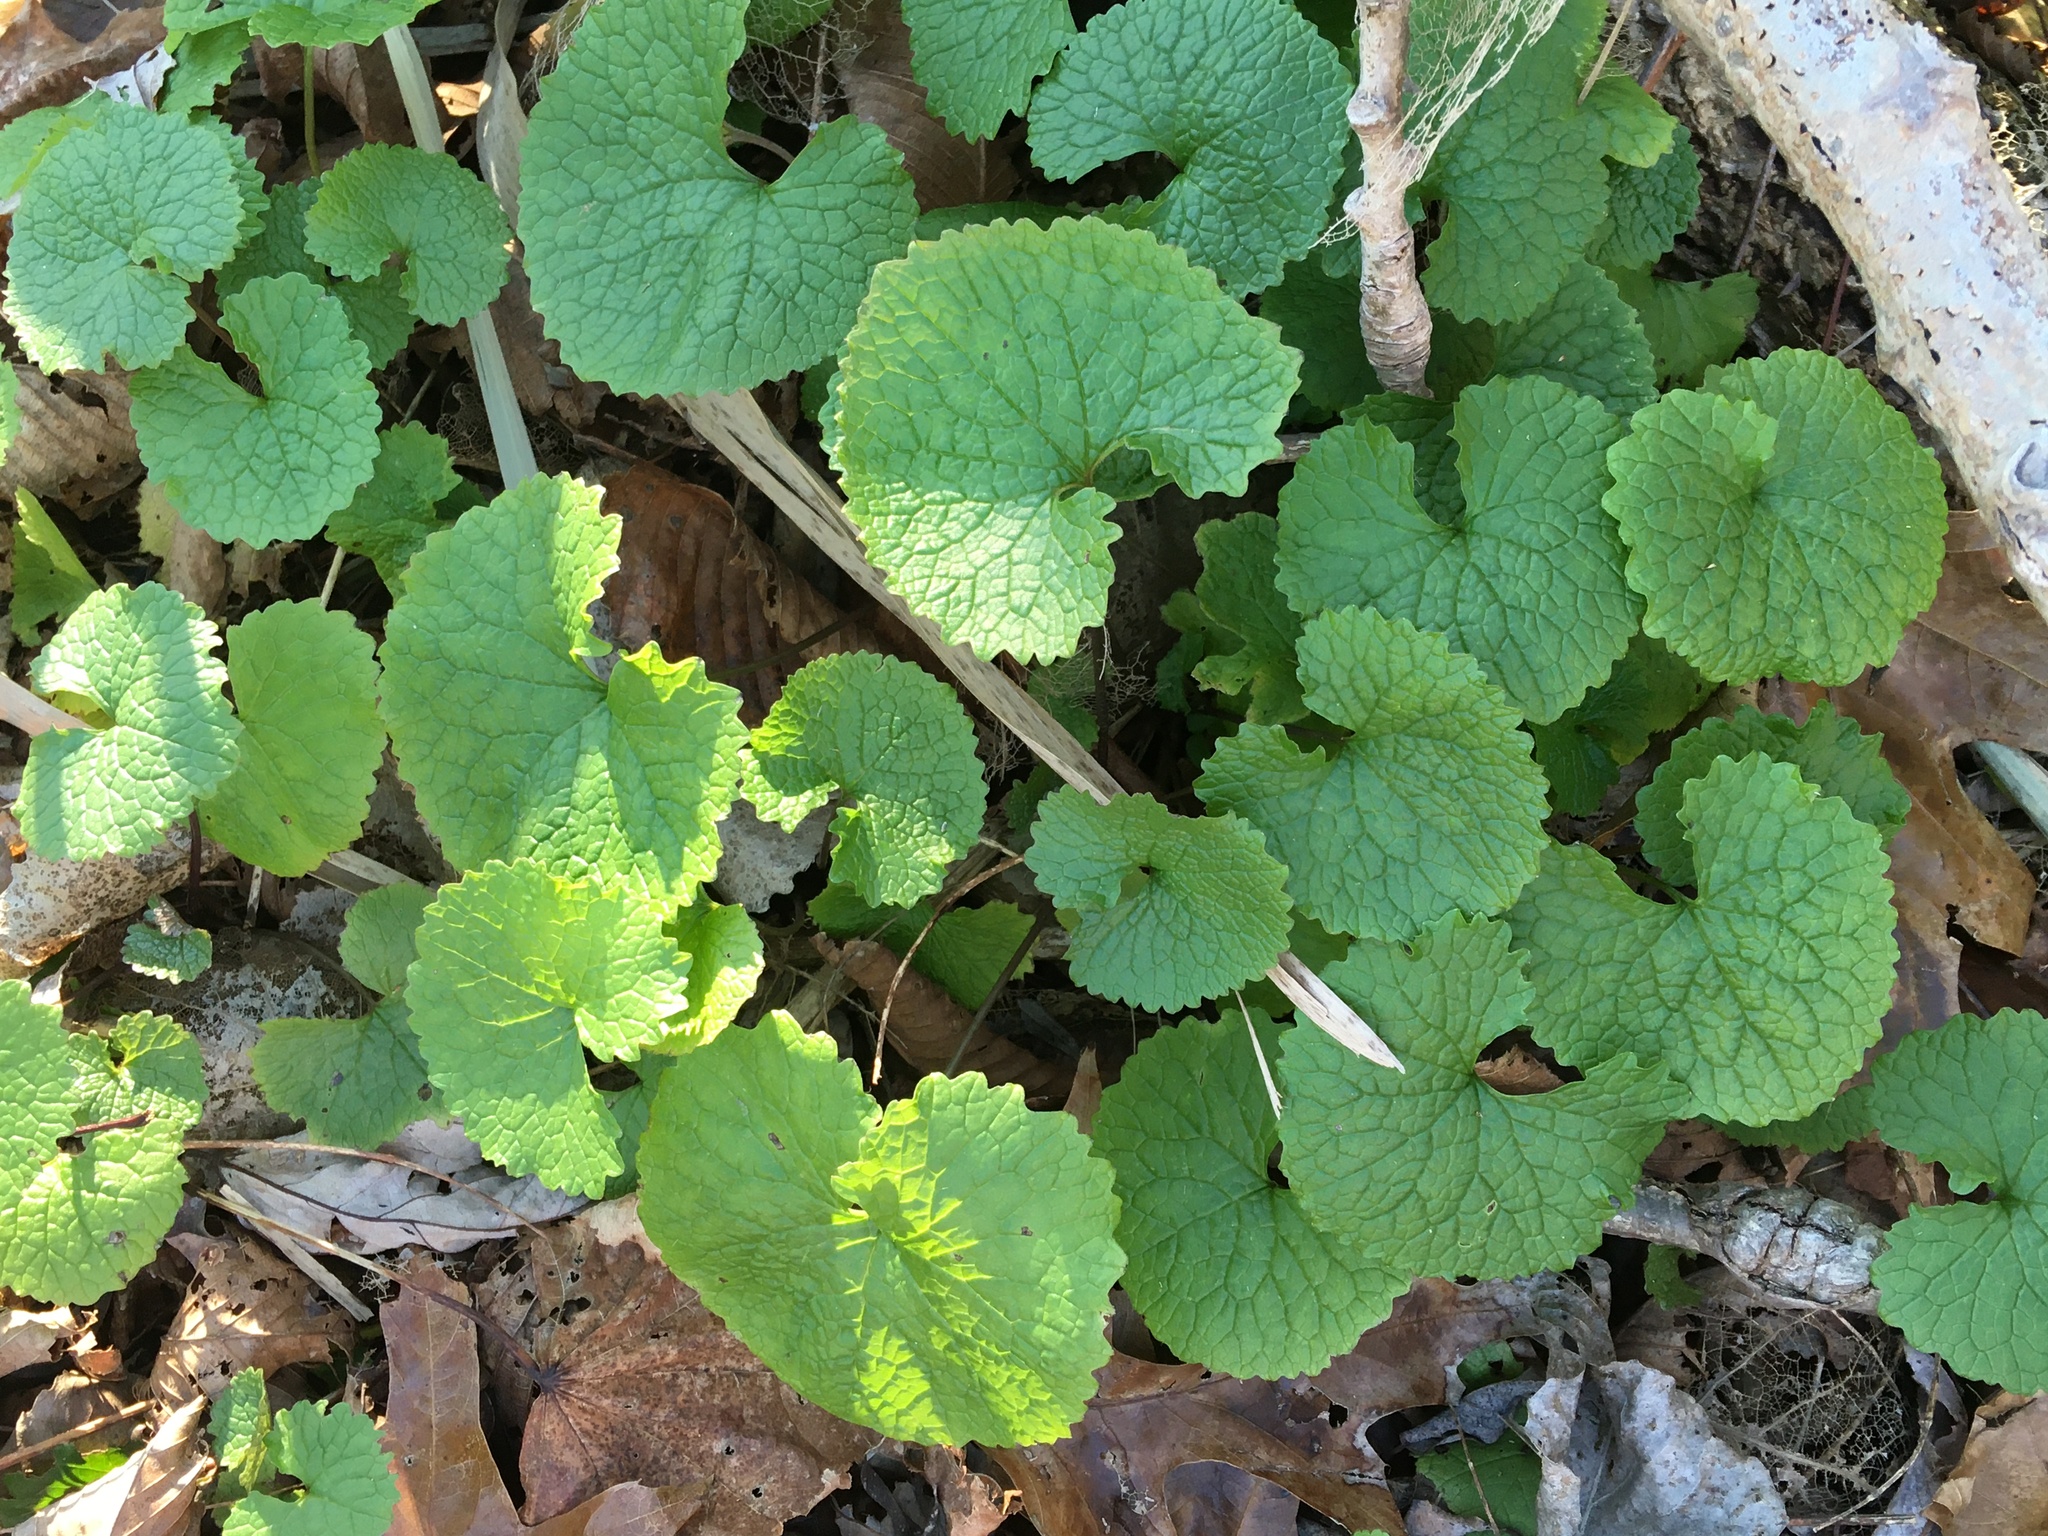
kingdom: Plantae
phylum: Tracheophyta
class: Magnoliopsida
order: Brassicales
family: Brassicaceae
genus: Alliaria
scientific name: Alliaria petiolata
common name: Garlic mustard
